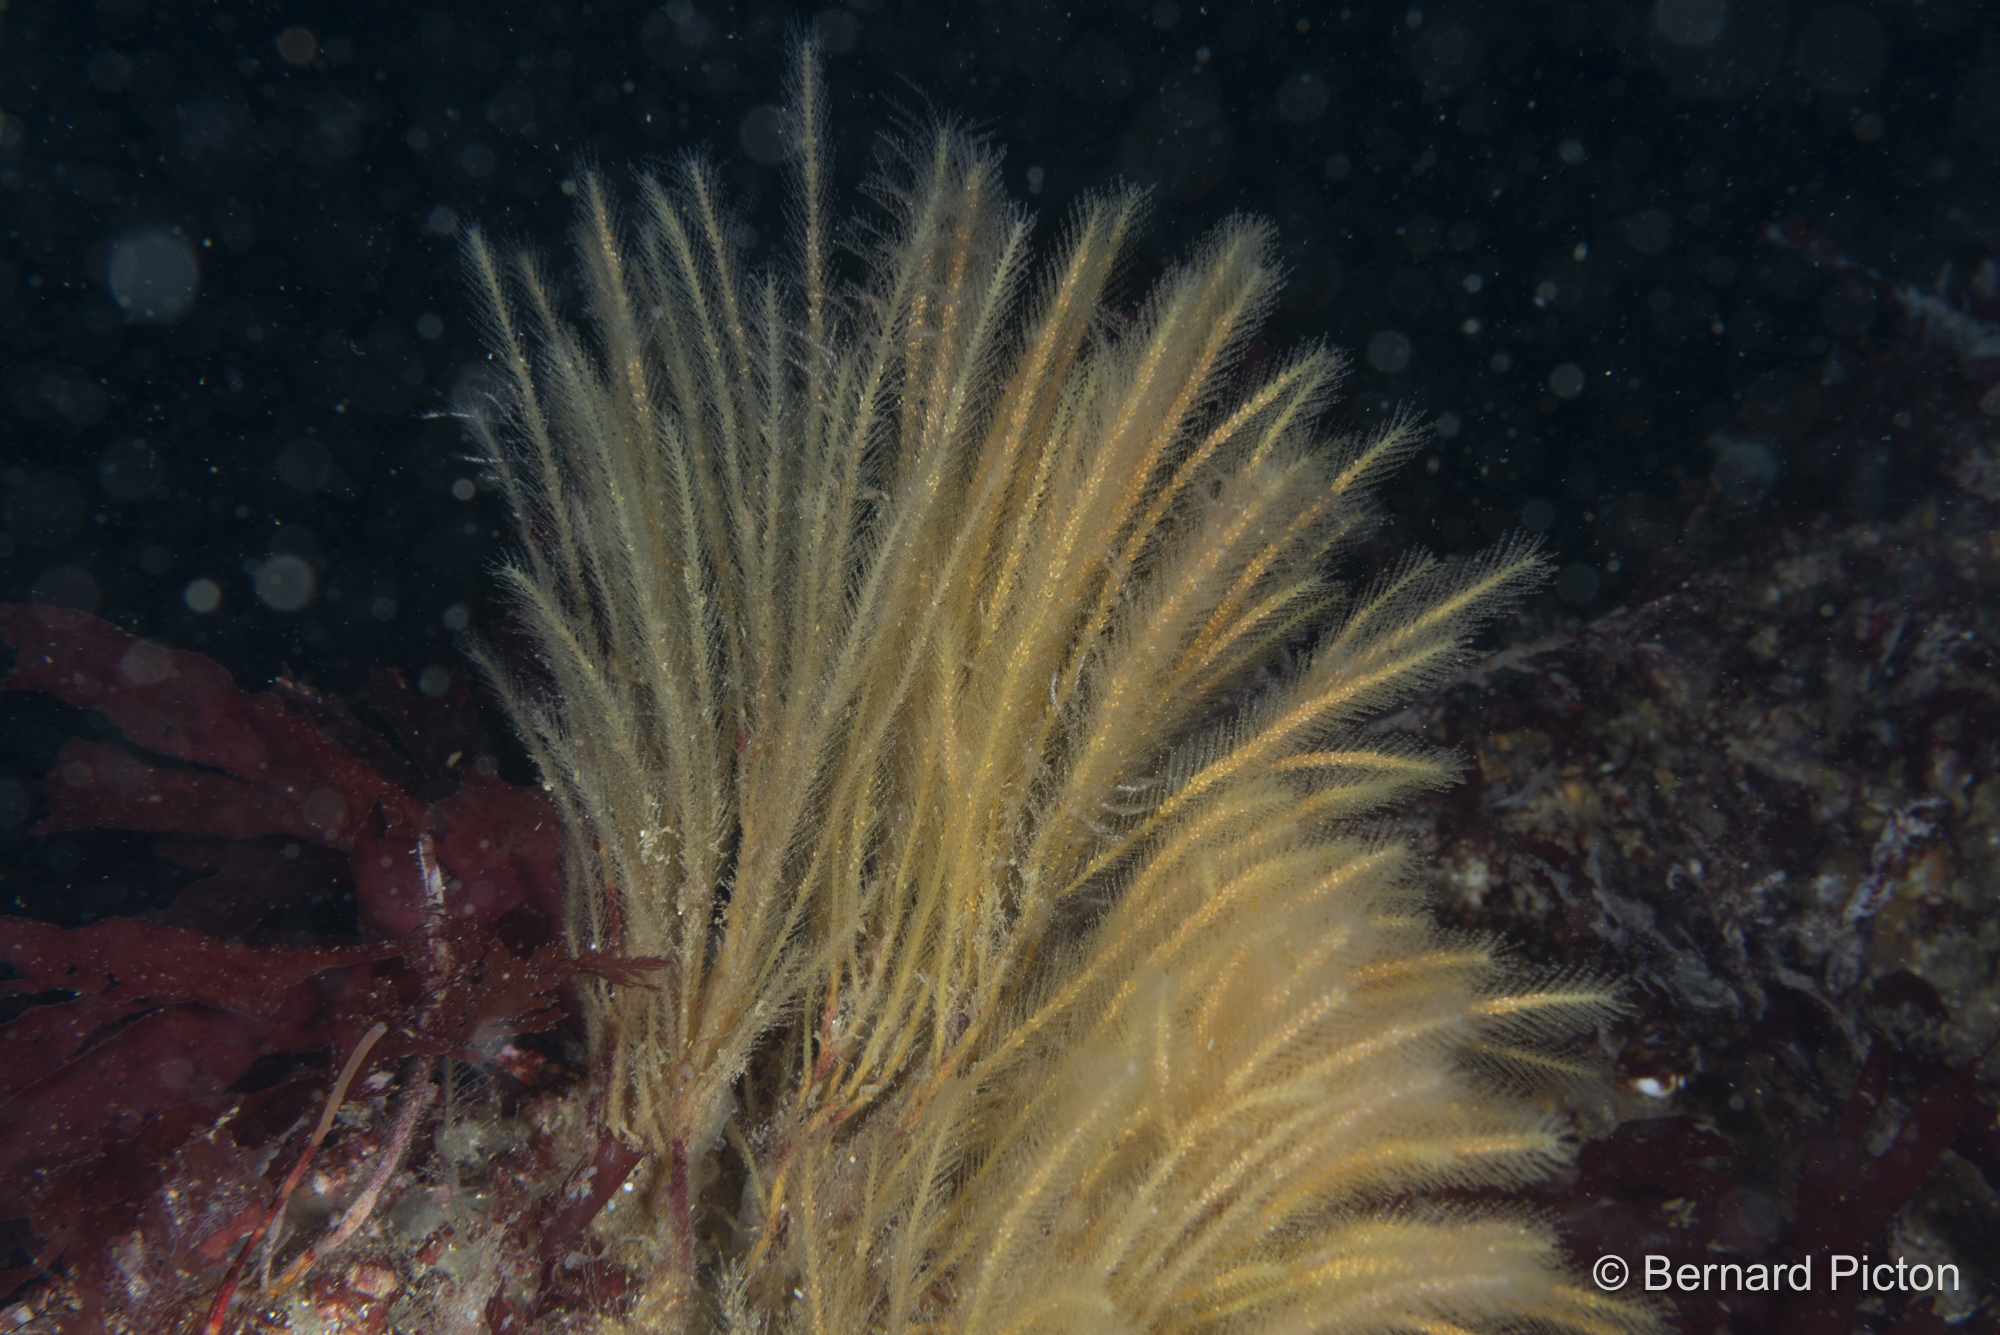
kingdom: Animalia
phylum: Cnidaria
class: Hydrozoa
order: Leptothecata
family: Plumulariidae
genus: Nemertesia
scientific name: Nemertesia ramosa
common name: Hydroid
